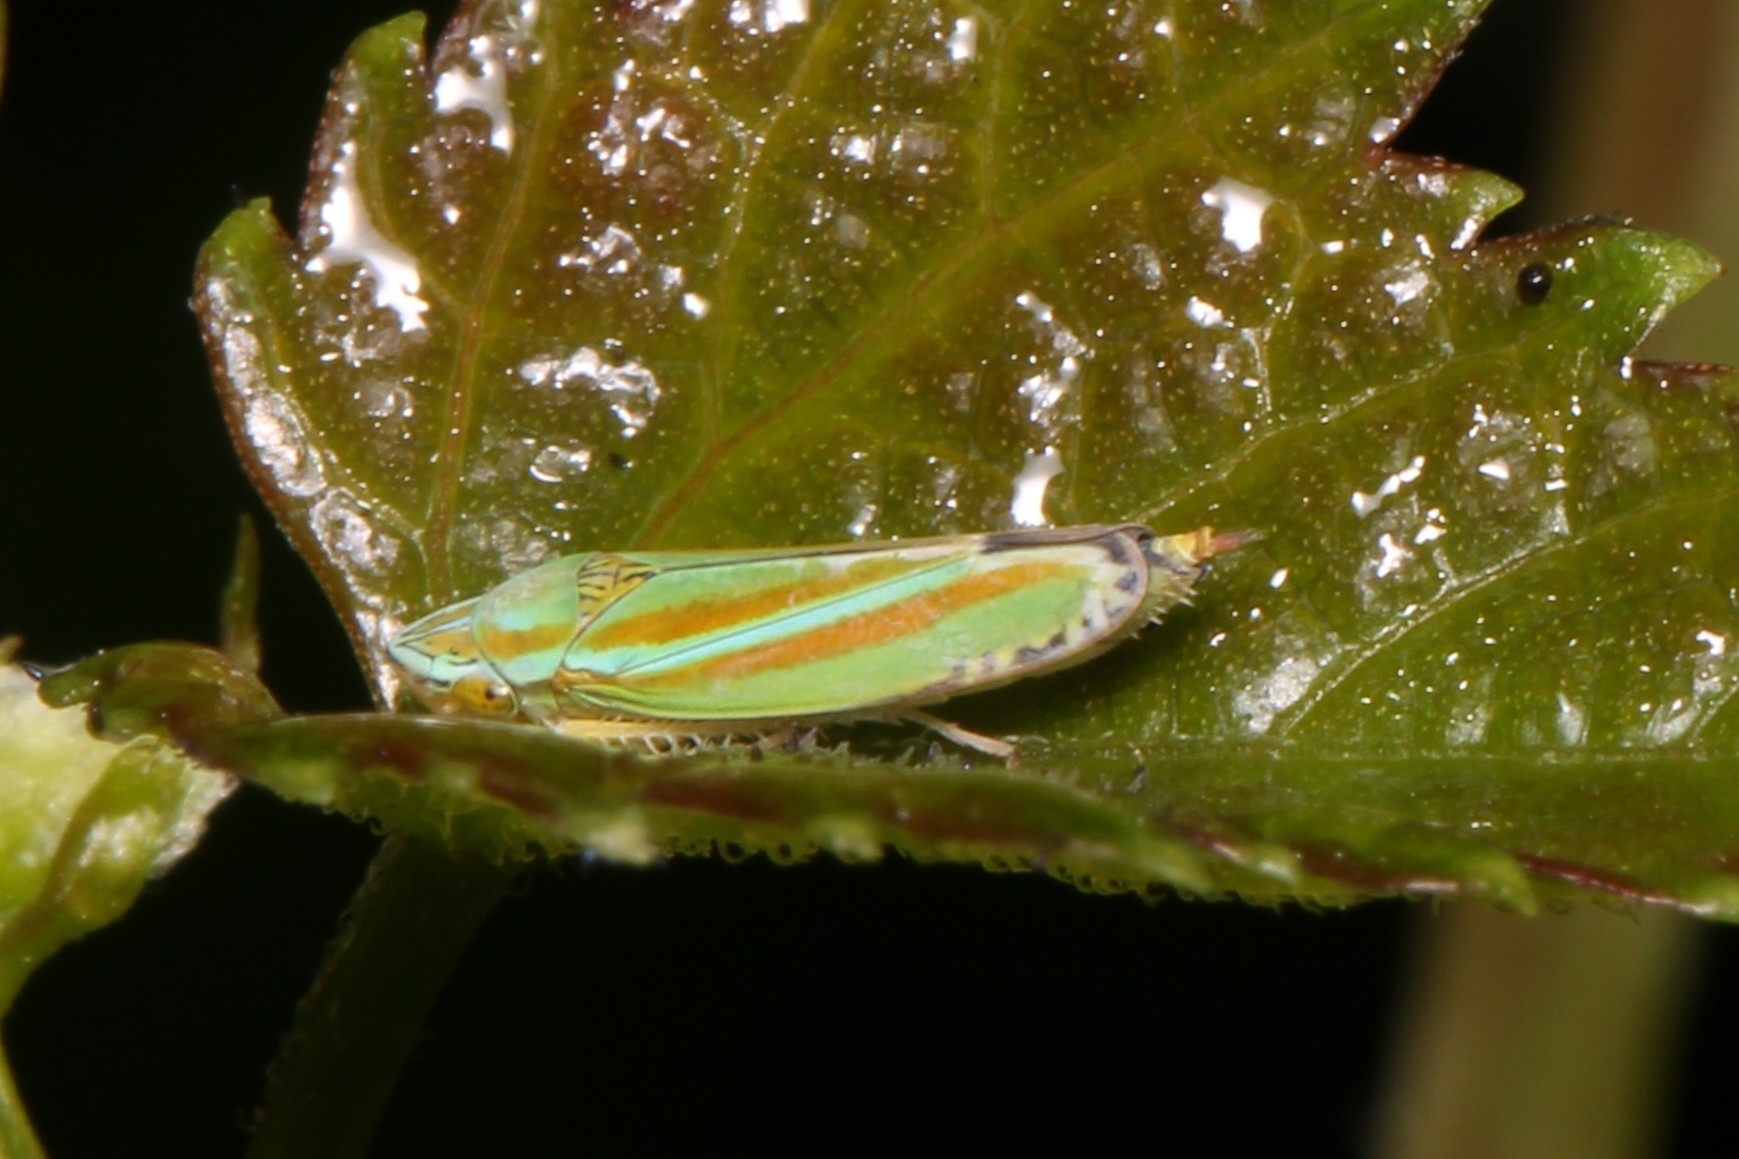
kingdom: Animalia
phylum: Arthropoda
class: Insecta
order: Hemiptera
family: Cicadellidae
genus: Graphocephala
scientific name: Graphocephala versuta
